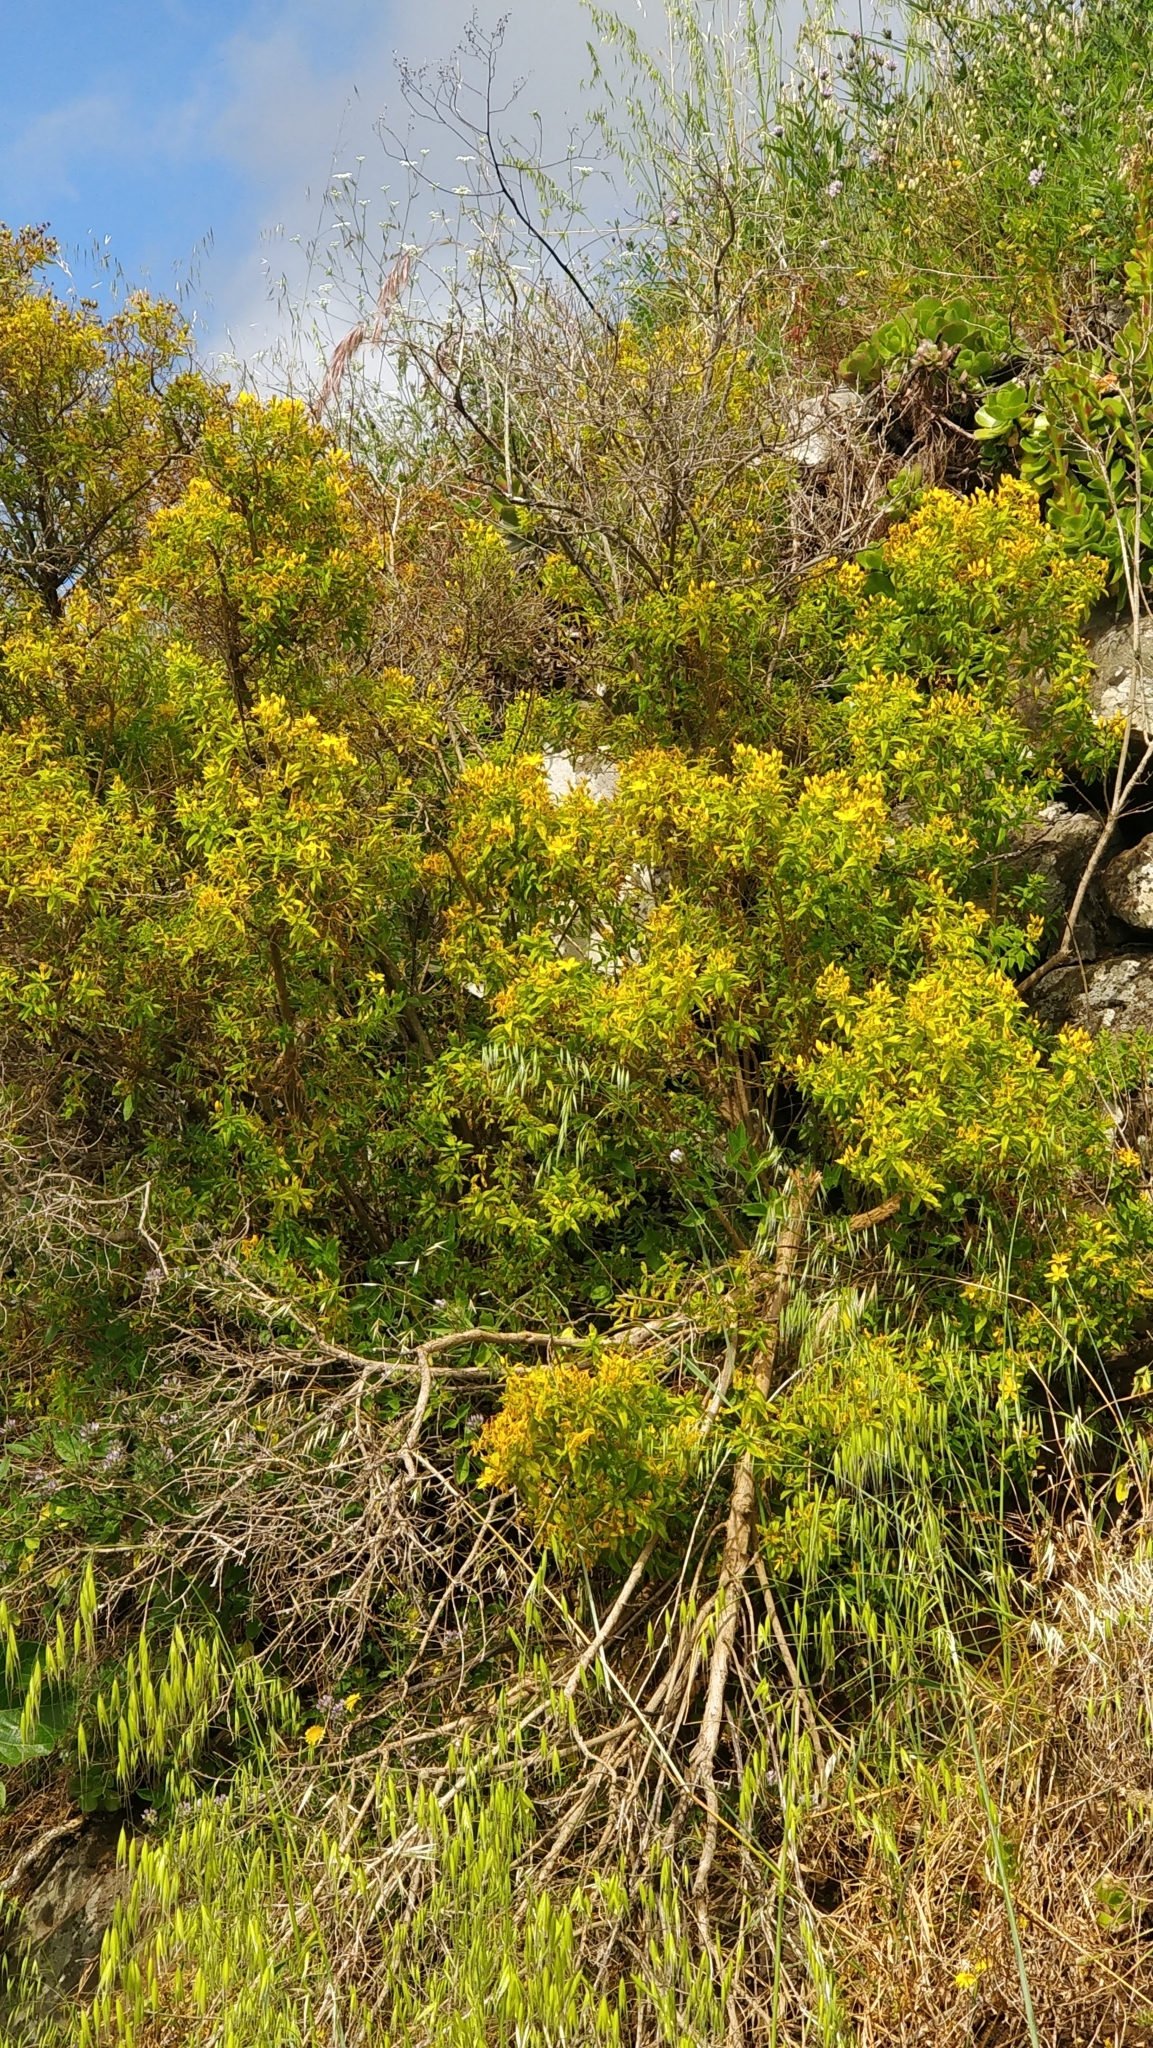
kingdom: Plantae
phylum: Tracheophyta
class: Magnoliopsida
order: Malpighiales
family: Hypericaceae
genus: Hypericum
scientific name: Hypericum canariense
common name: Canary island st. johnswort
